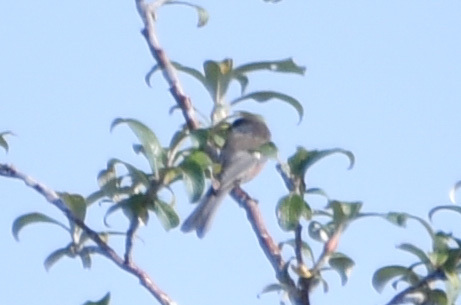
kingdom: Animalia
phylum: Chordata
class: Aves
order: Passeriformes
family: Paridae
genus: Poecile
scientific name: Poecile hudsonicus
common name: Boreal chickadee
